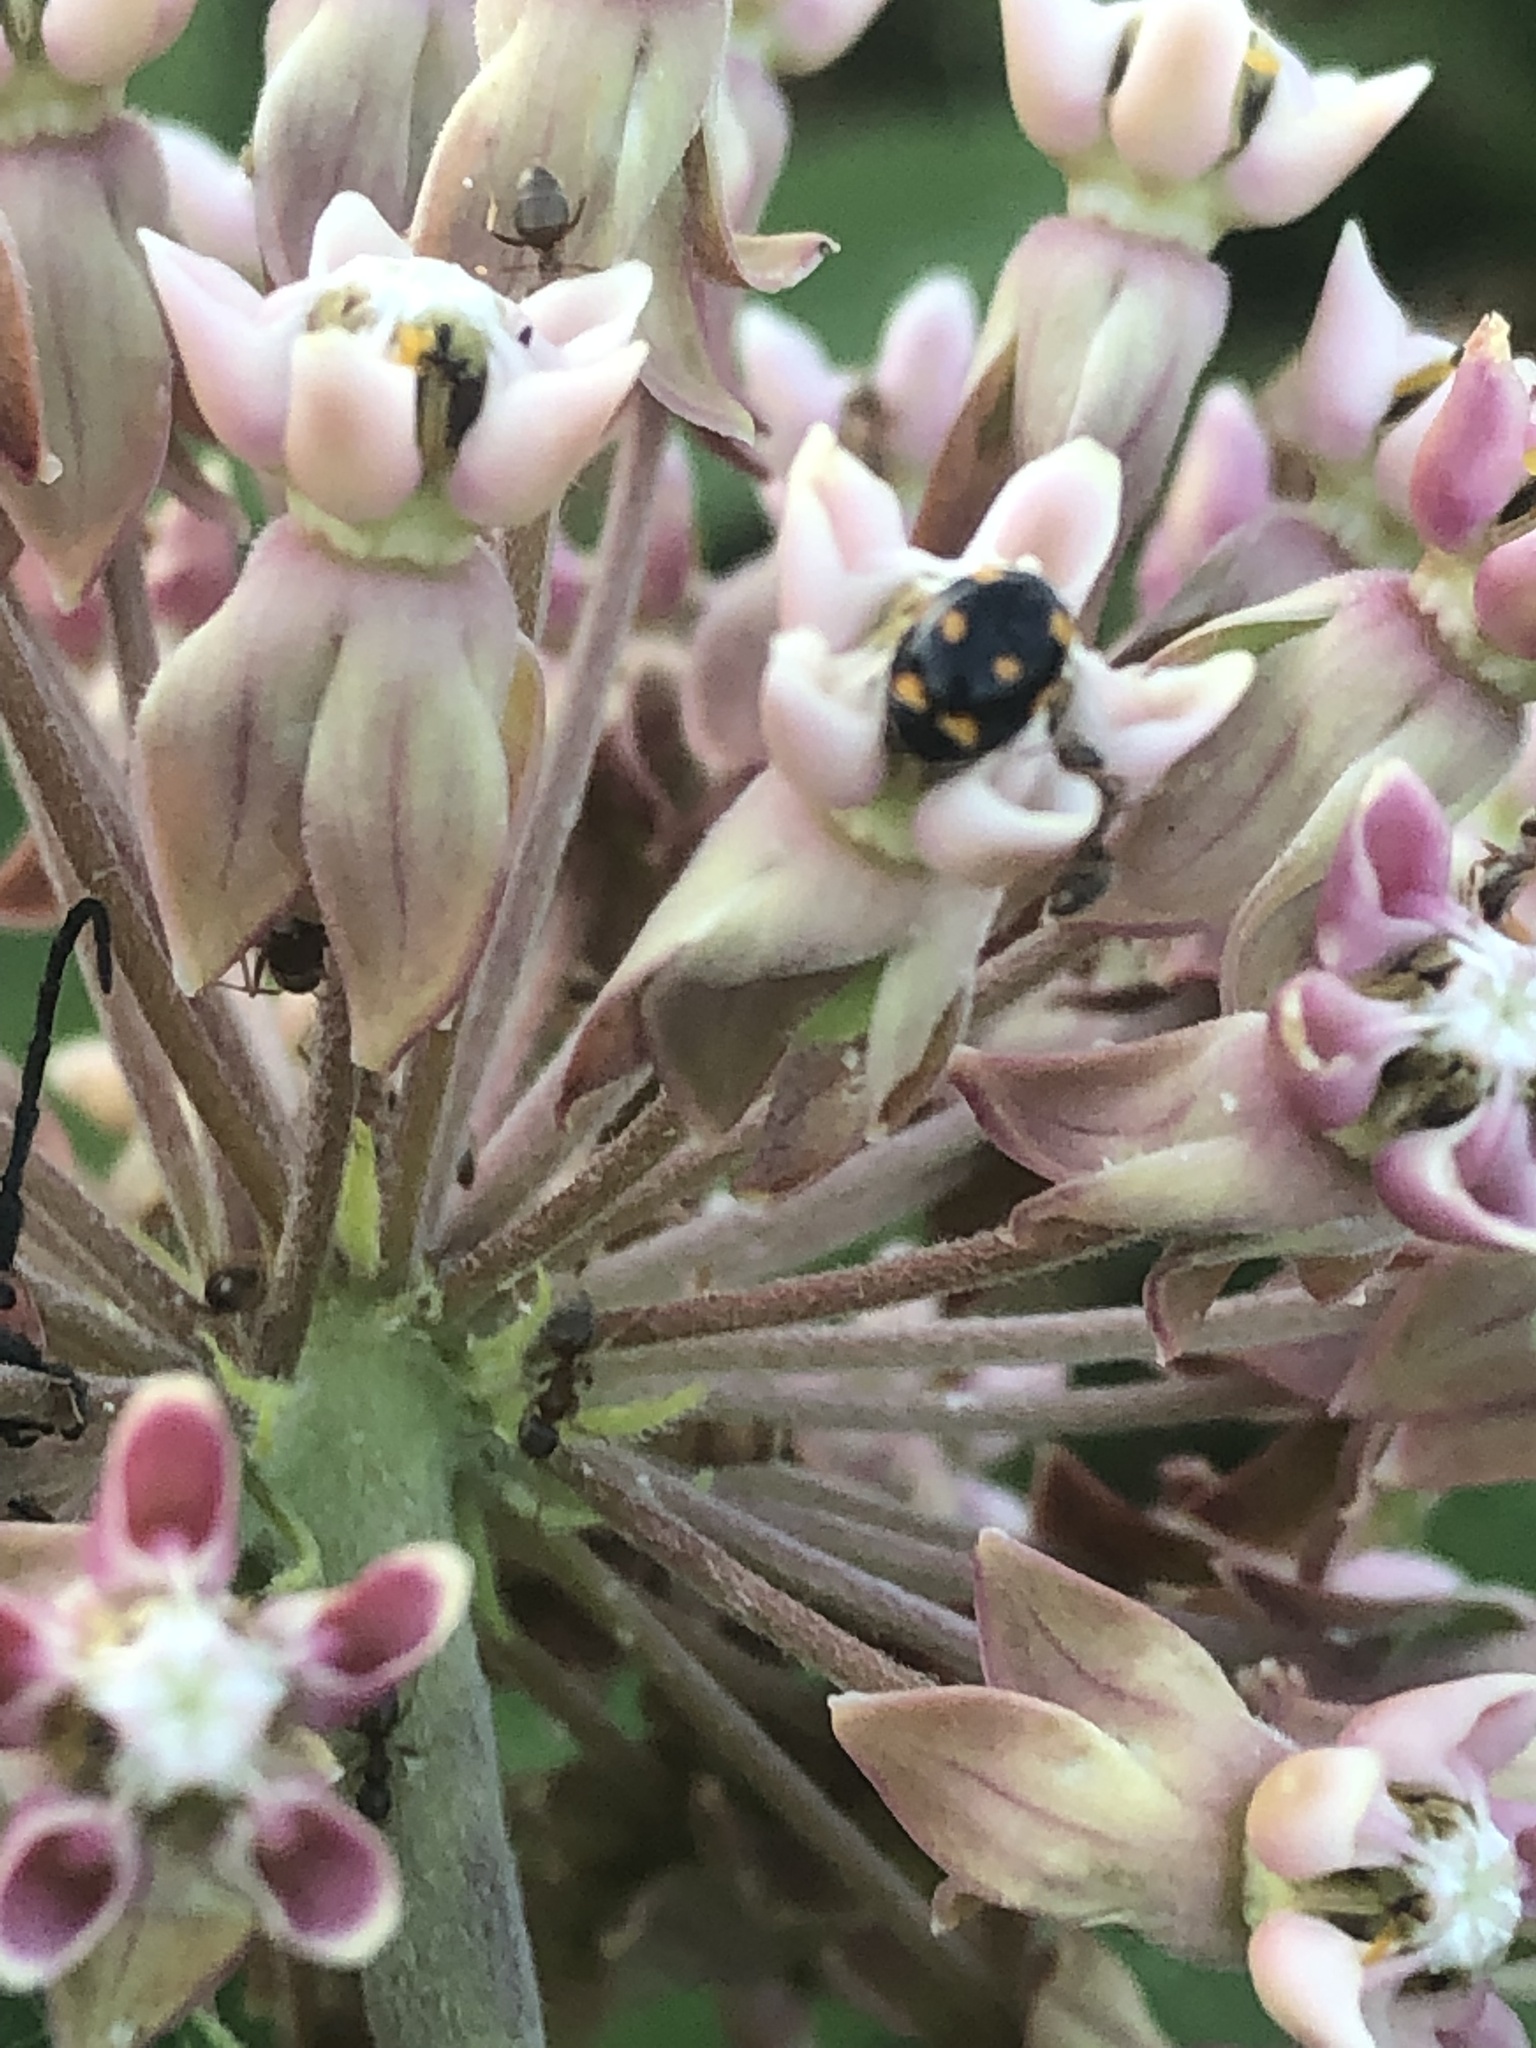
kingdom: Animalia
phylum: Arthropoda
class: Insecta
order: Coleoptera
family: Coccinellidae
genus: Brachiacantha
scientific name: Brachiacantha ursina
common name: Ursine spurleg lady beetle
